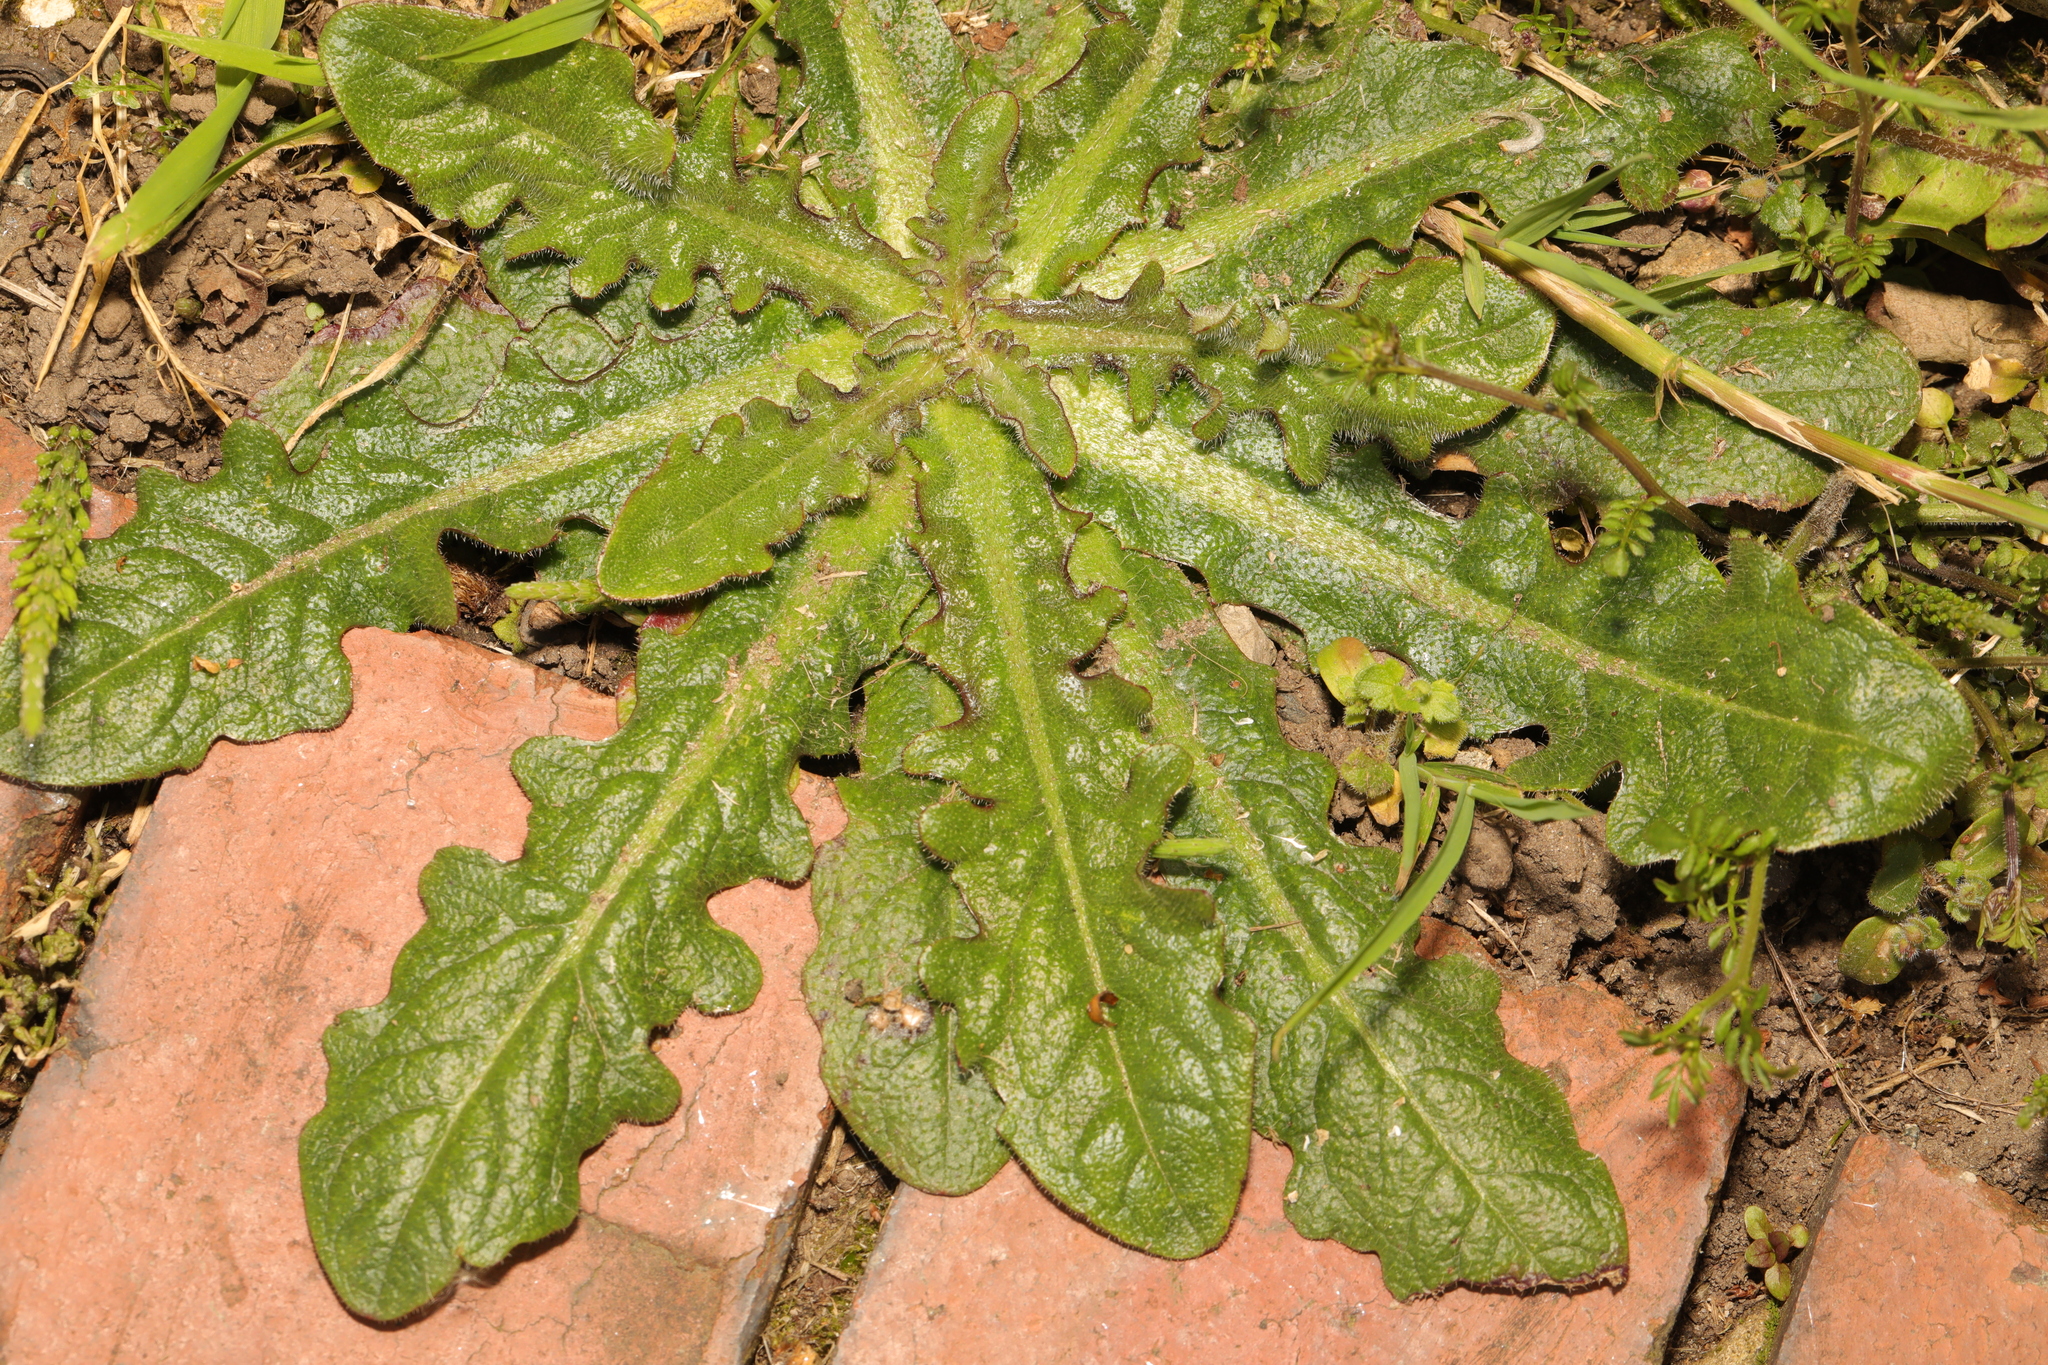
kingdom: Plantae
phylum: Tracheophyta
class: Magnoliopsida
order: Asterales
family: Asteraceae
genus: Hypochaeris
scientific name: Hypochaeris radicata
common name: Flatweed
